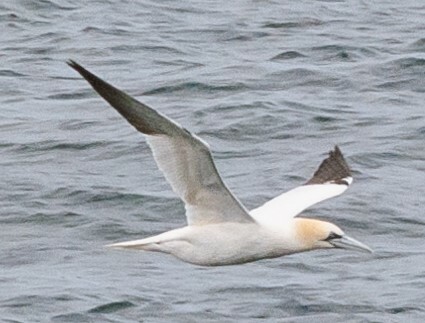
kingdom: Animalia
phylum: Chordata
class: Aves
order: Suliformes
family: Sulidae
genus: Morus
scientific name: Morus bassanus
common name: Northern gannet
